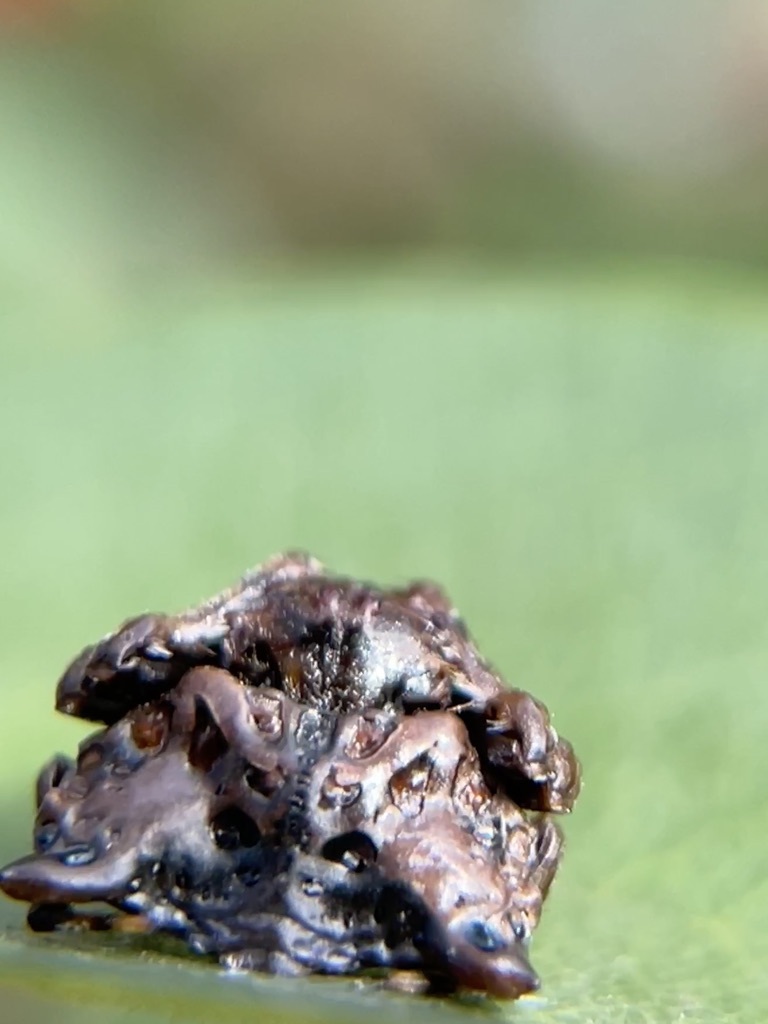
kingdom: Animalia
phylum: Arthropoda
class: Arachnida
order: Araneae
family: Arkyidae
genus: Arkys
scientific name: Arkys curtulus
